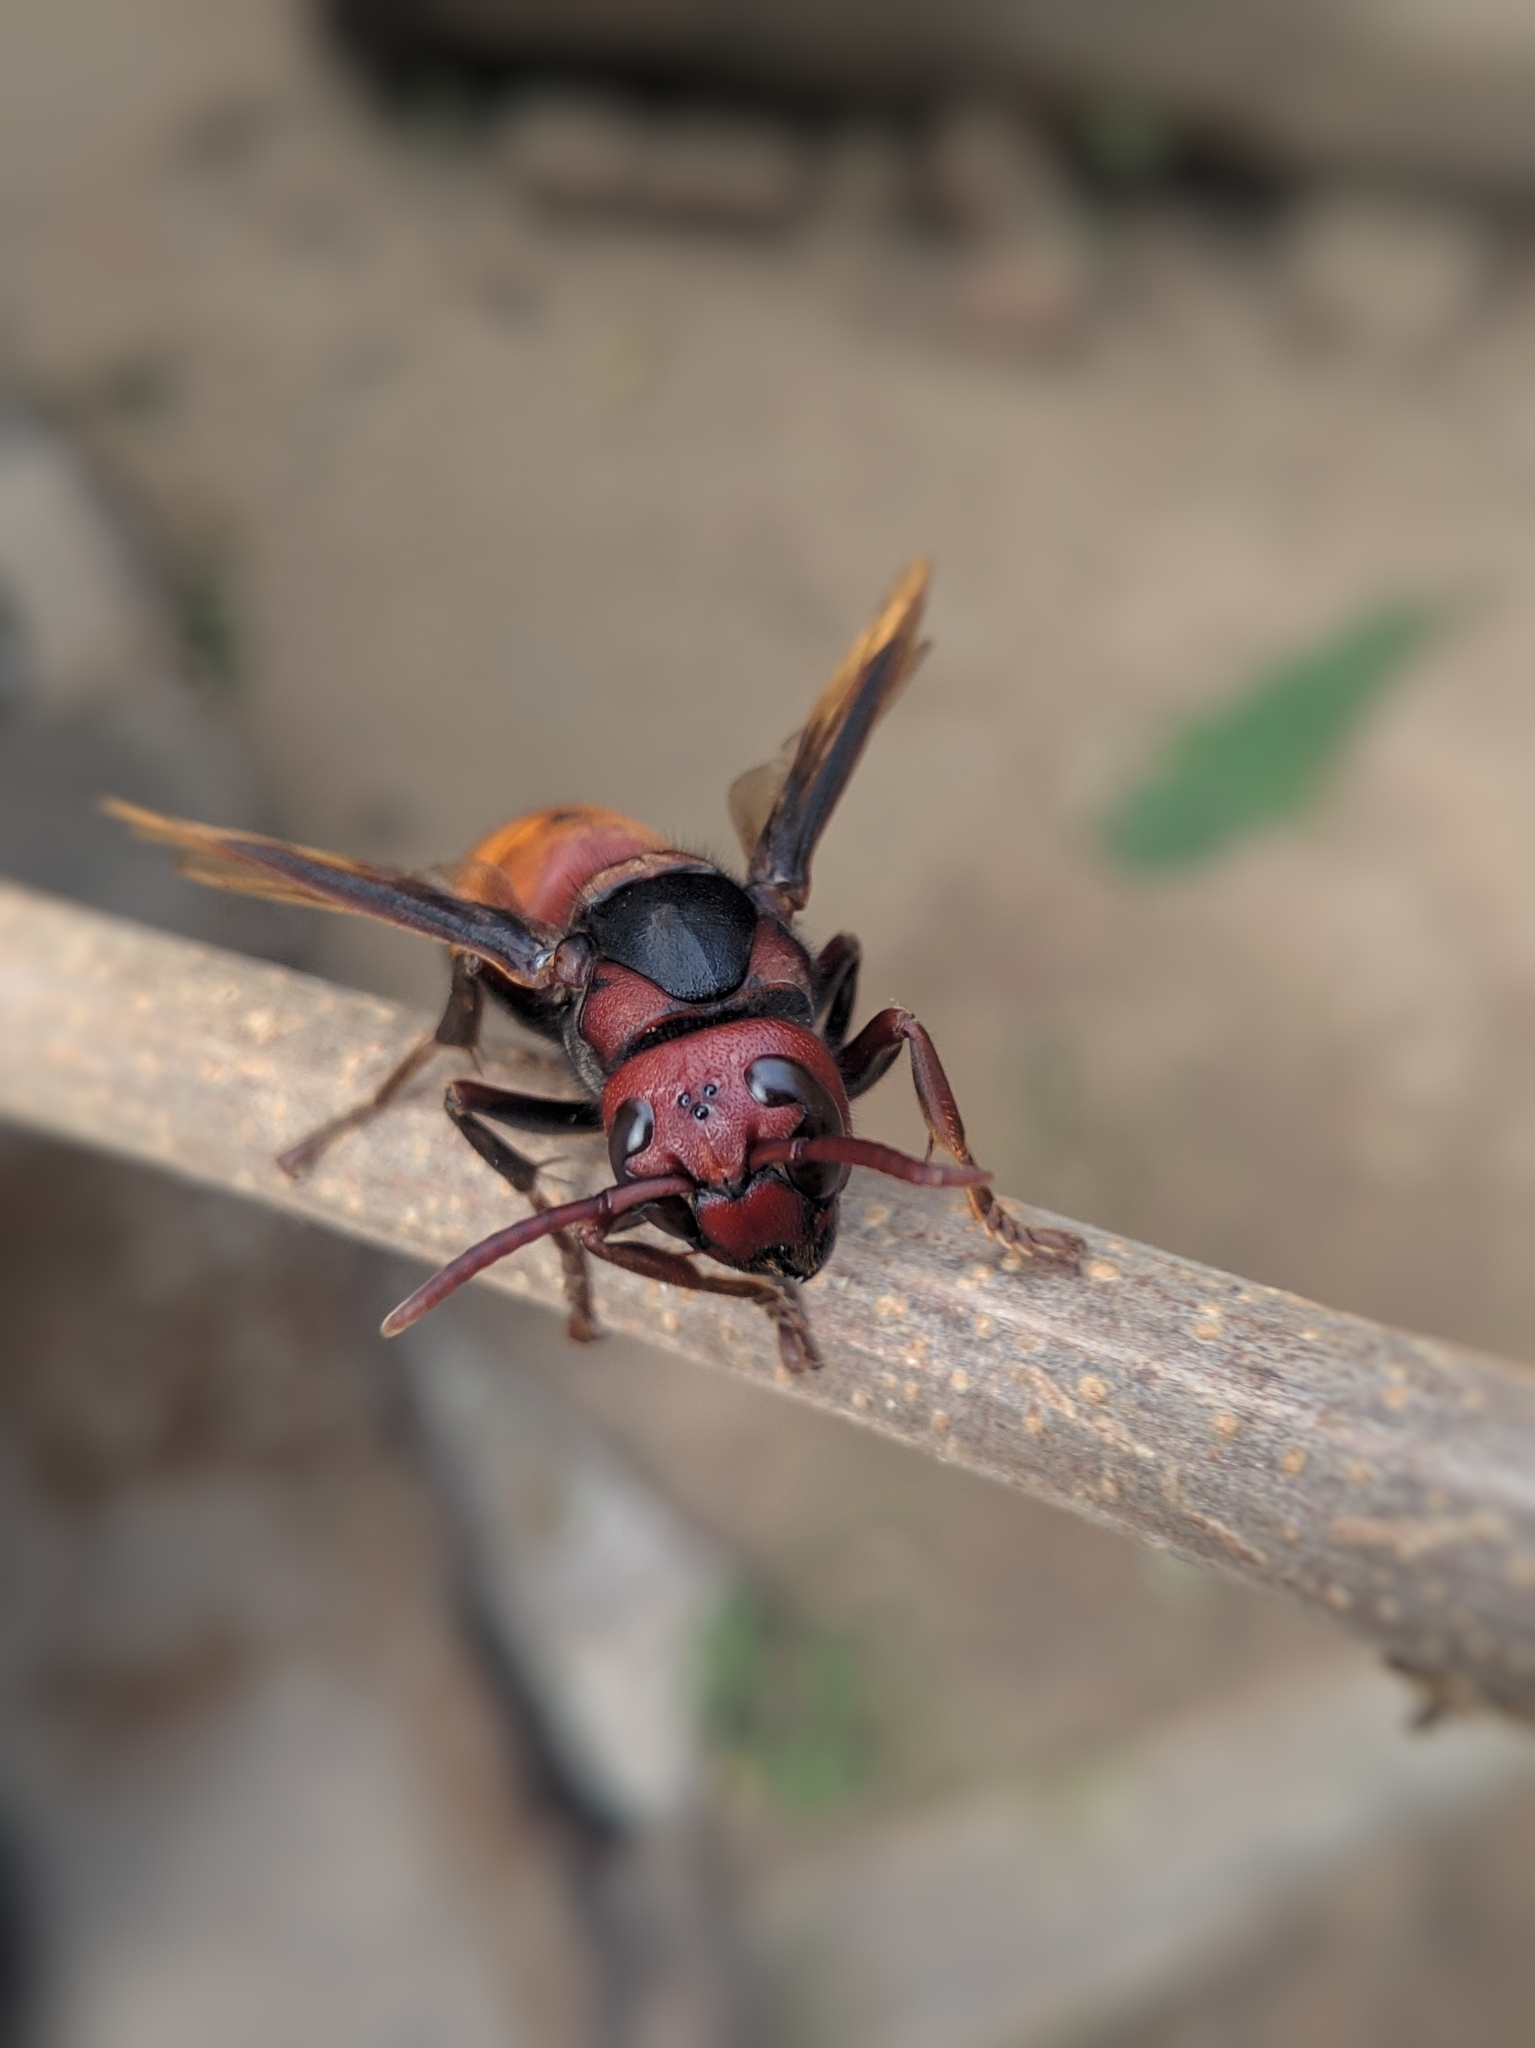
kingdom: Animalia
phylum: Arthropoda
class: Insecta
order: Hymenoptera
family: Vespidae
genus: Vespa
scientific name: Vespa affinis
